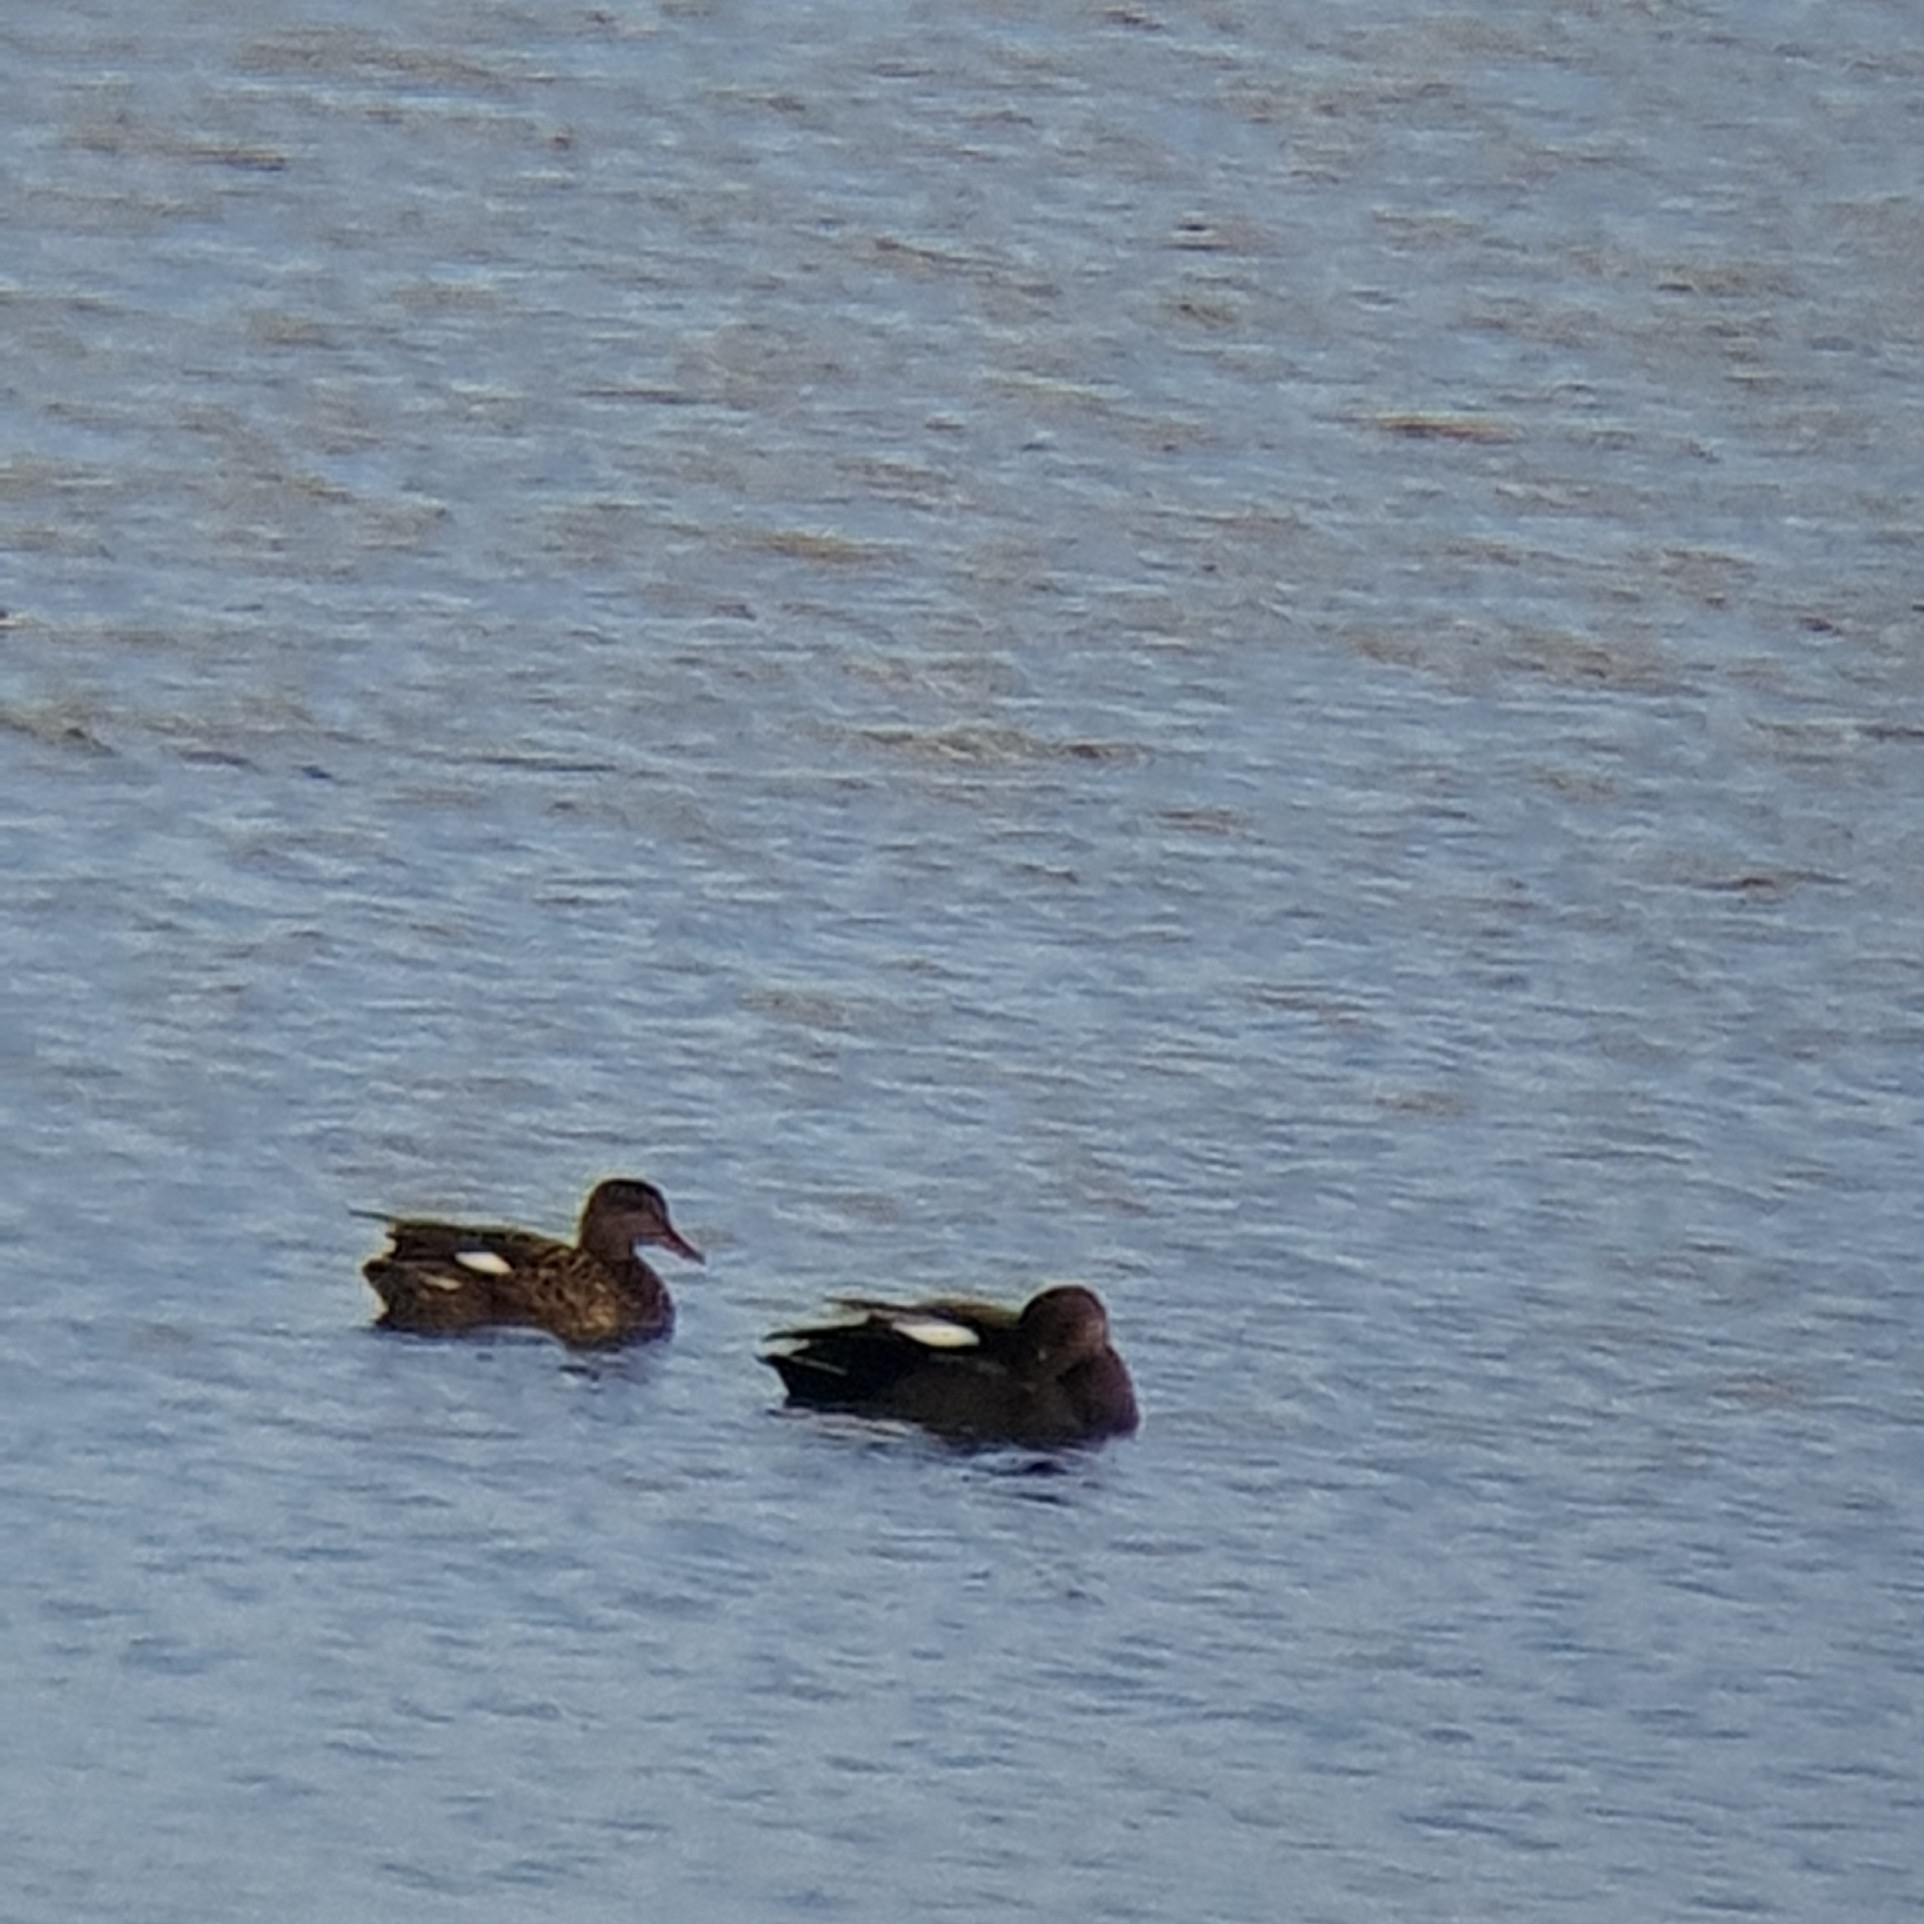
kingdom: Animalia
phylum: Chordata
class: Aves
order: Anseriformes
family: Anatidae
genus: Mareca
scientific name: Mareca strepera
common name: Gadwall
